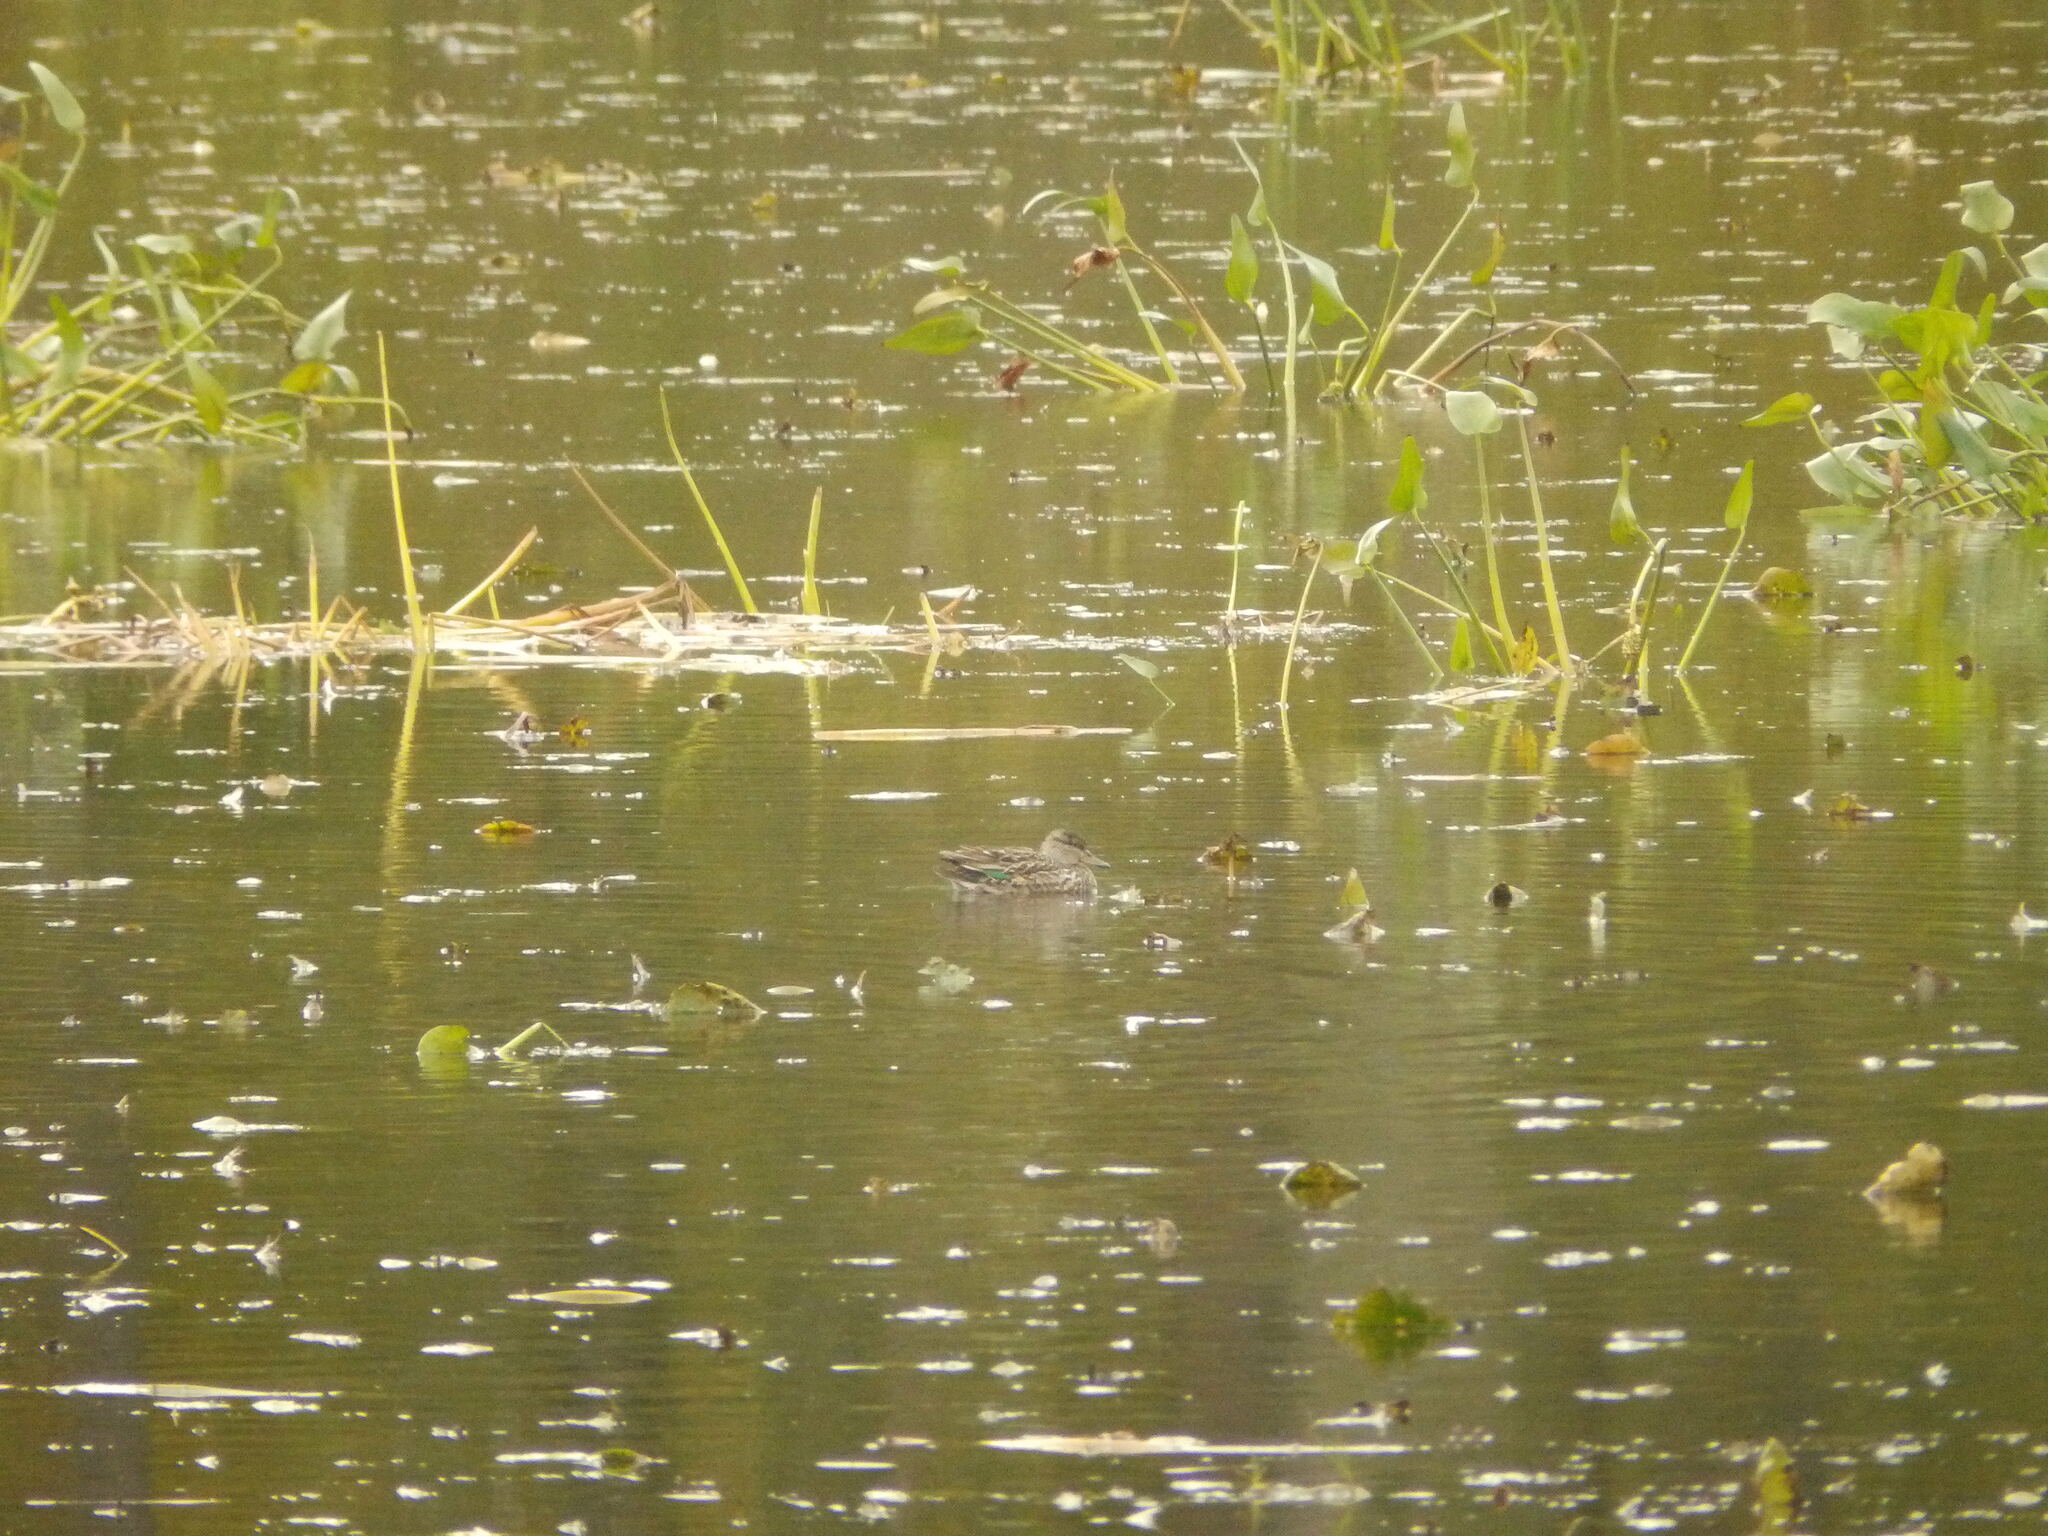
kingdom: Animalia
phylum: Chordata
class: Aves
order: Anseriformes
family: Anatidae
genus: Anas
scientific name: Anas crecca
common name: Eurasian teal
